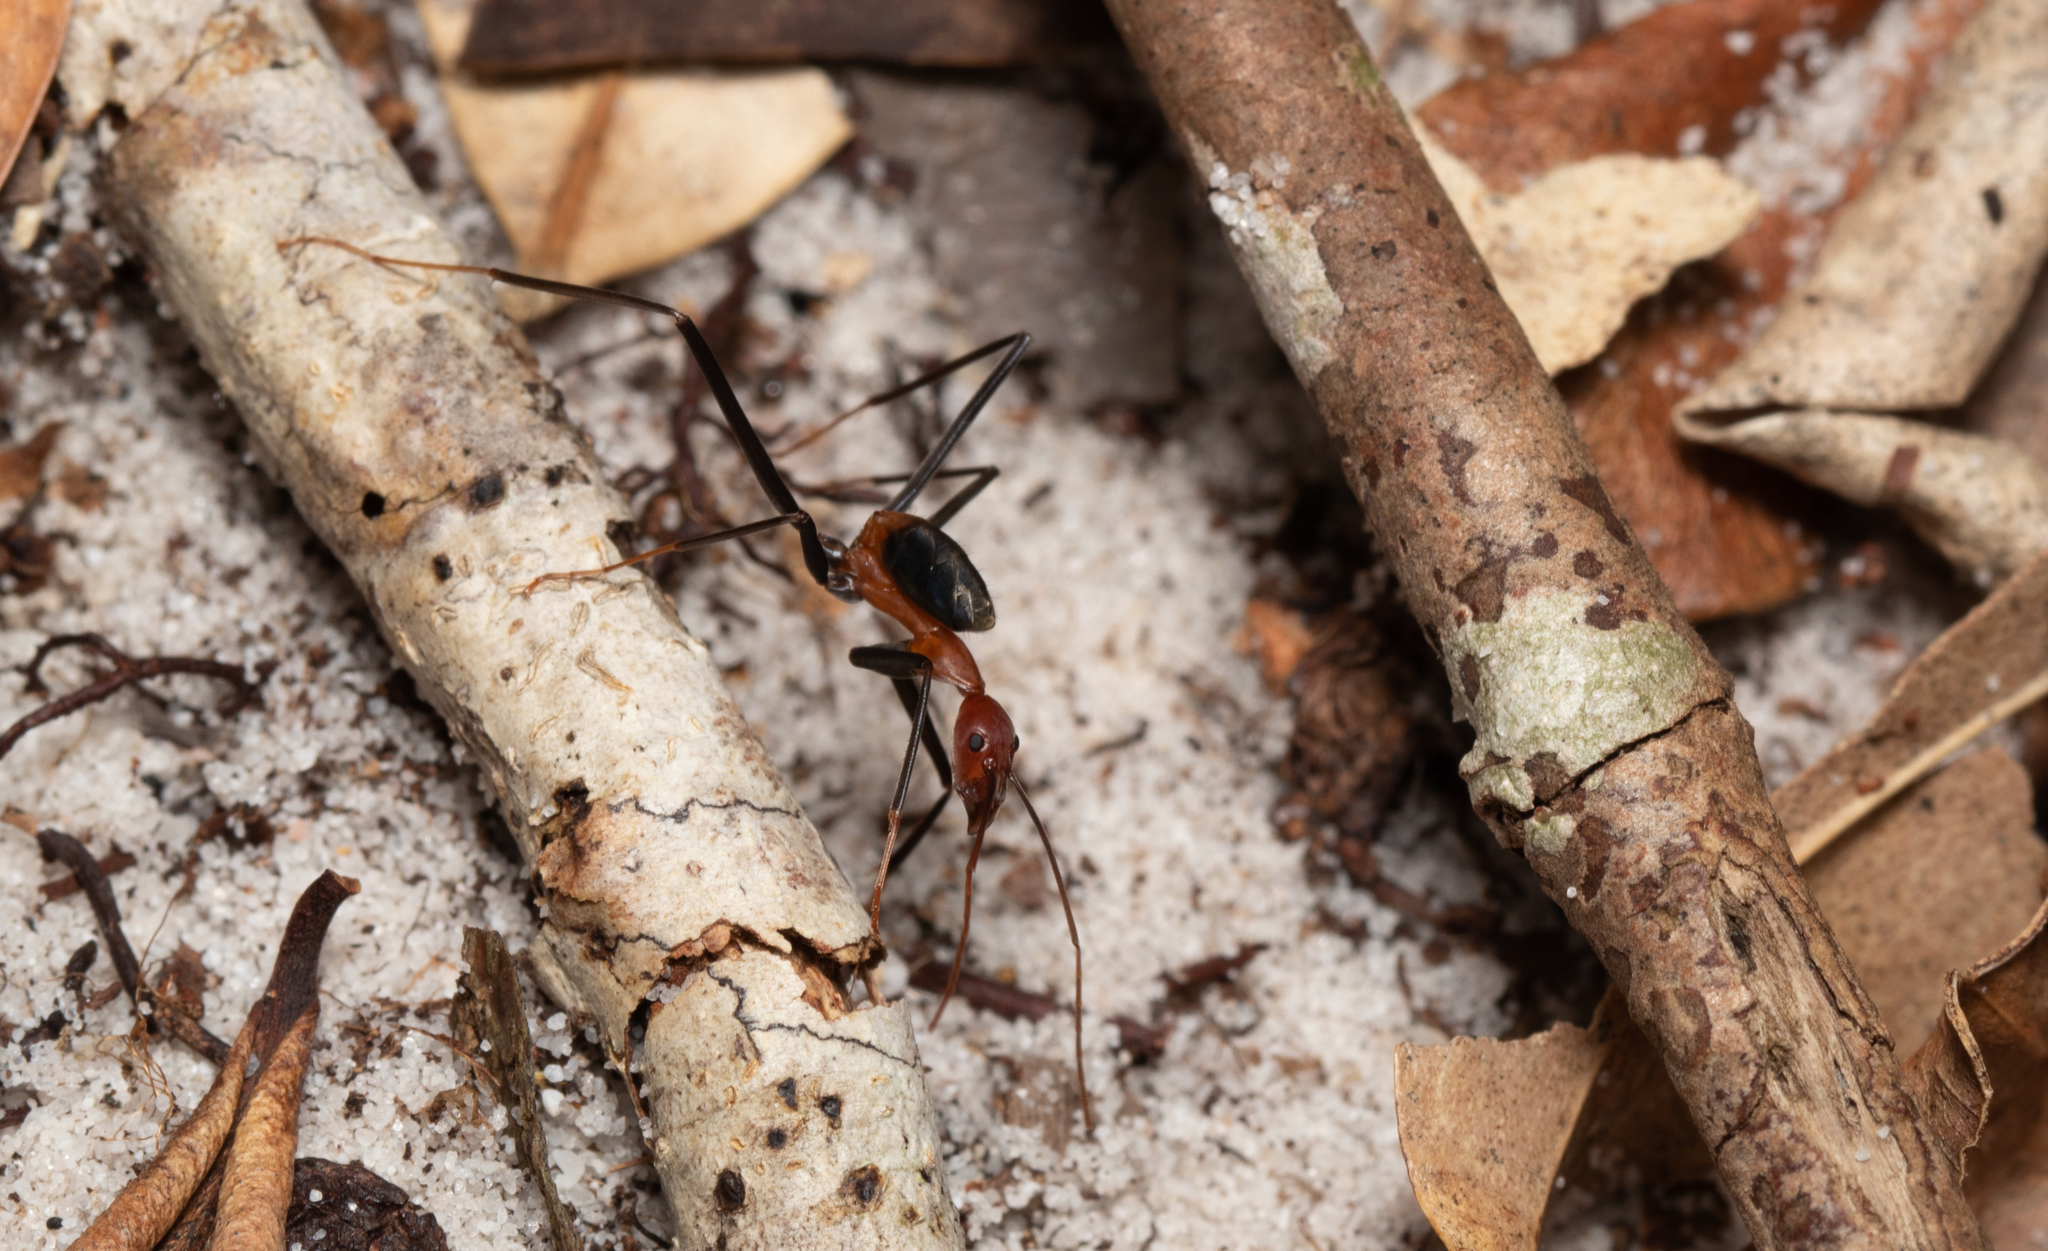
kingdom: Animalia
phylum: Arthropoda
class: Insecta
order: Hymenoptera
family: Formicidae
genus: Leptomyrmex
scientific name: Leptomyrmex rufithorax
